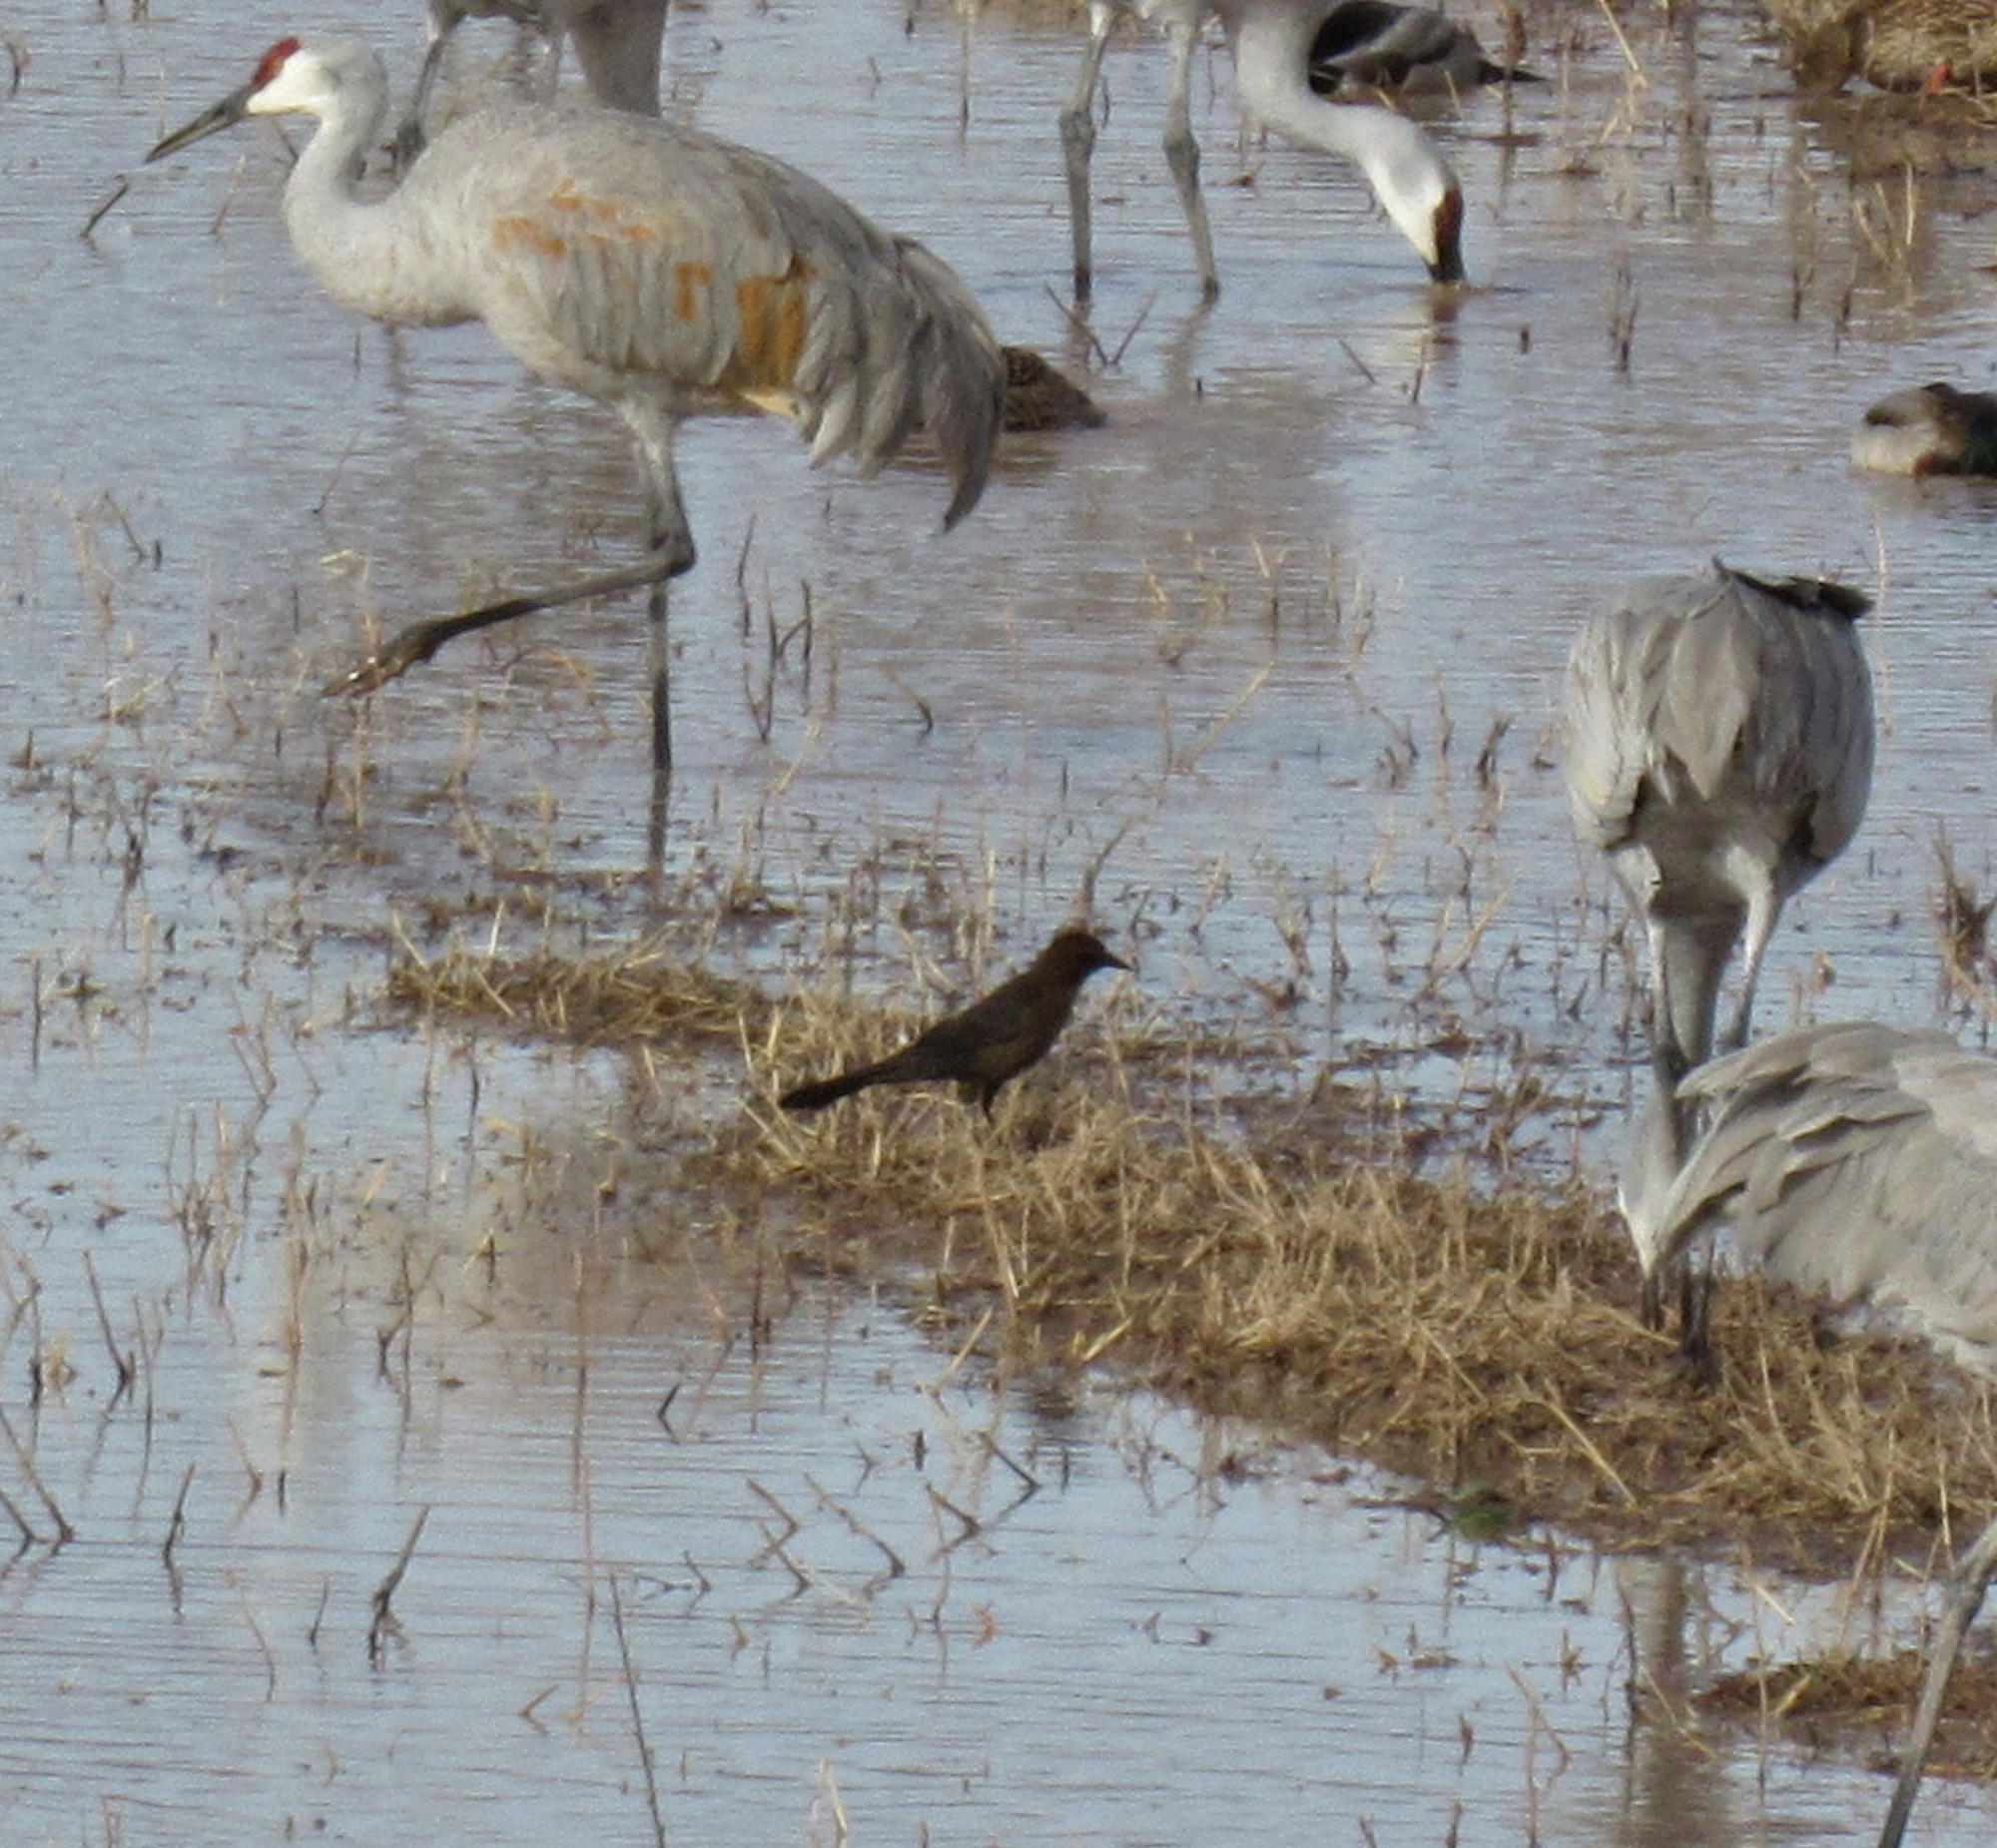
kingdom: Animalia
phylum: Chordata
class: Aves
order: Passeriformes
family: Icteridae
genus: Quiscalus
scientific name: Quiscalus mexicanus
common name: Great-tailed grackle
